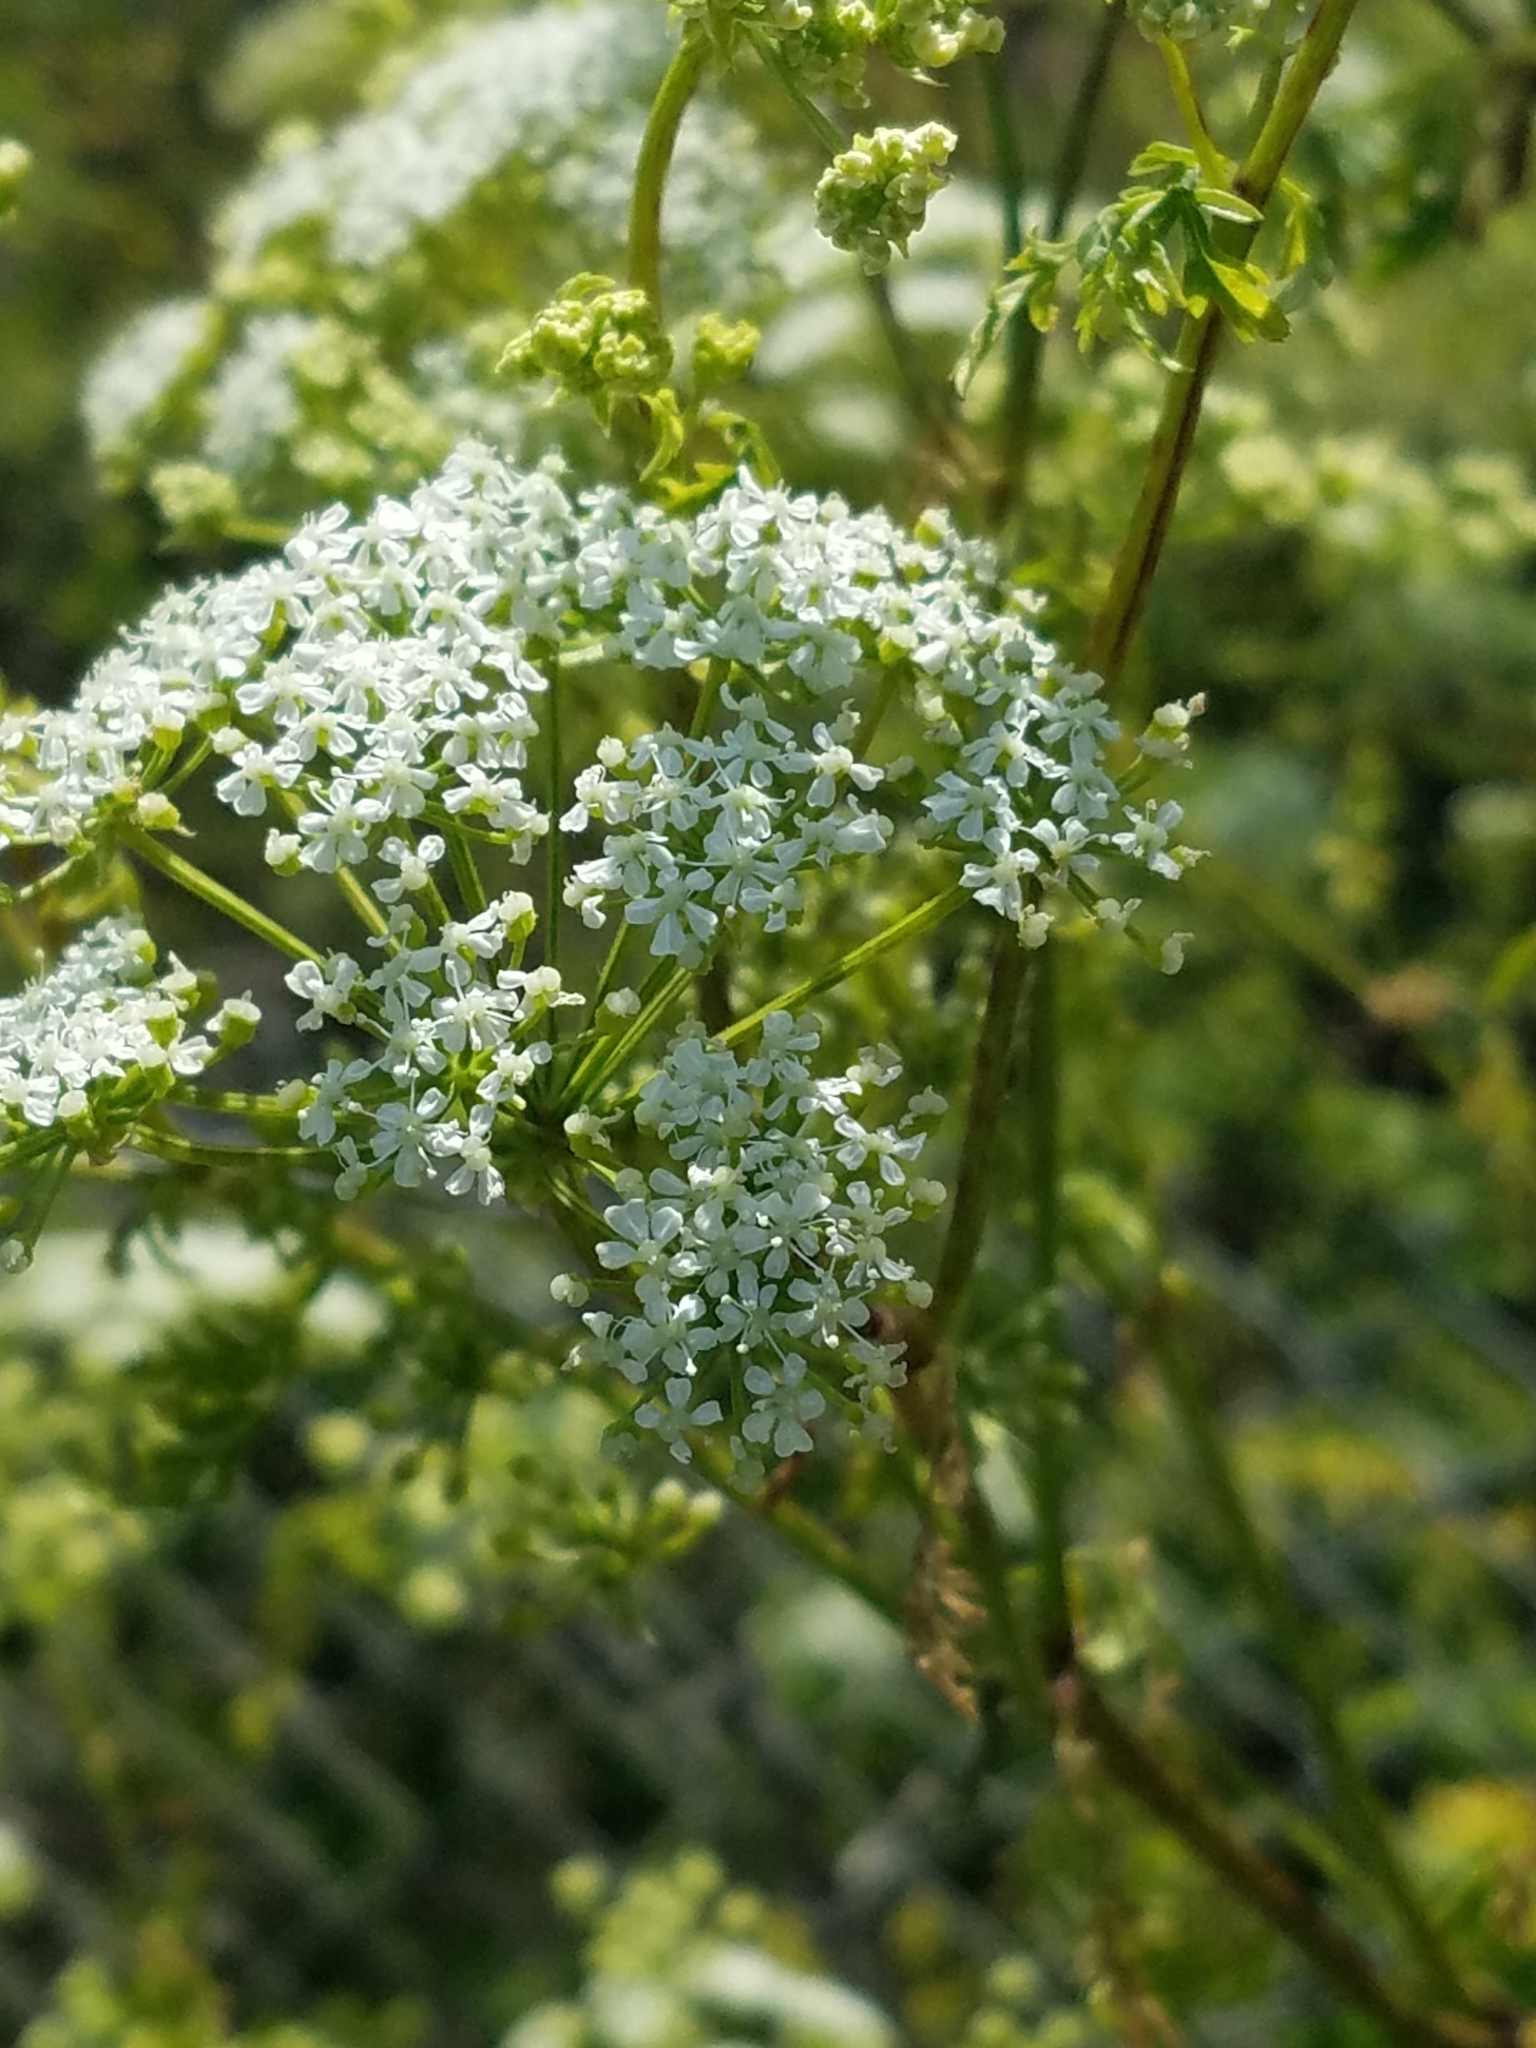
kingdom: Plantae
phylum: Tracheophyta
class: Magnoliopsida
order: Apiales
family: Apiaceae
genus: Conium
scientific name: Conium maculatum
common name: Hemlock
